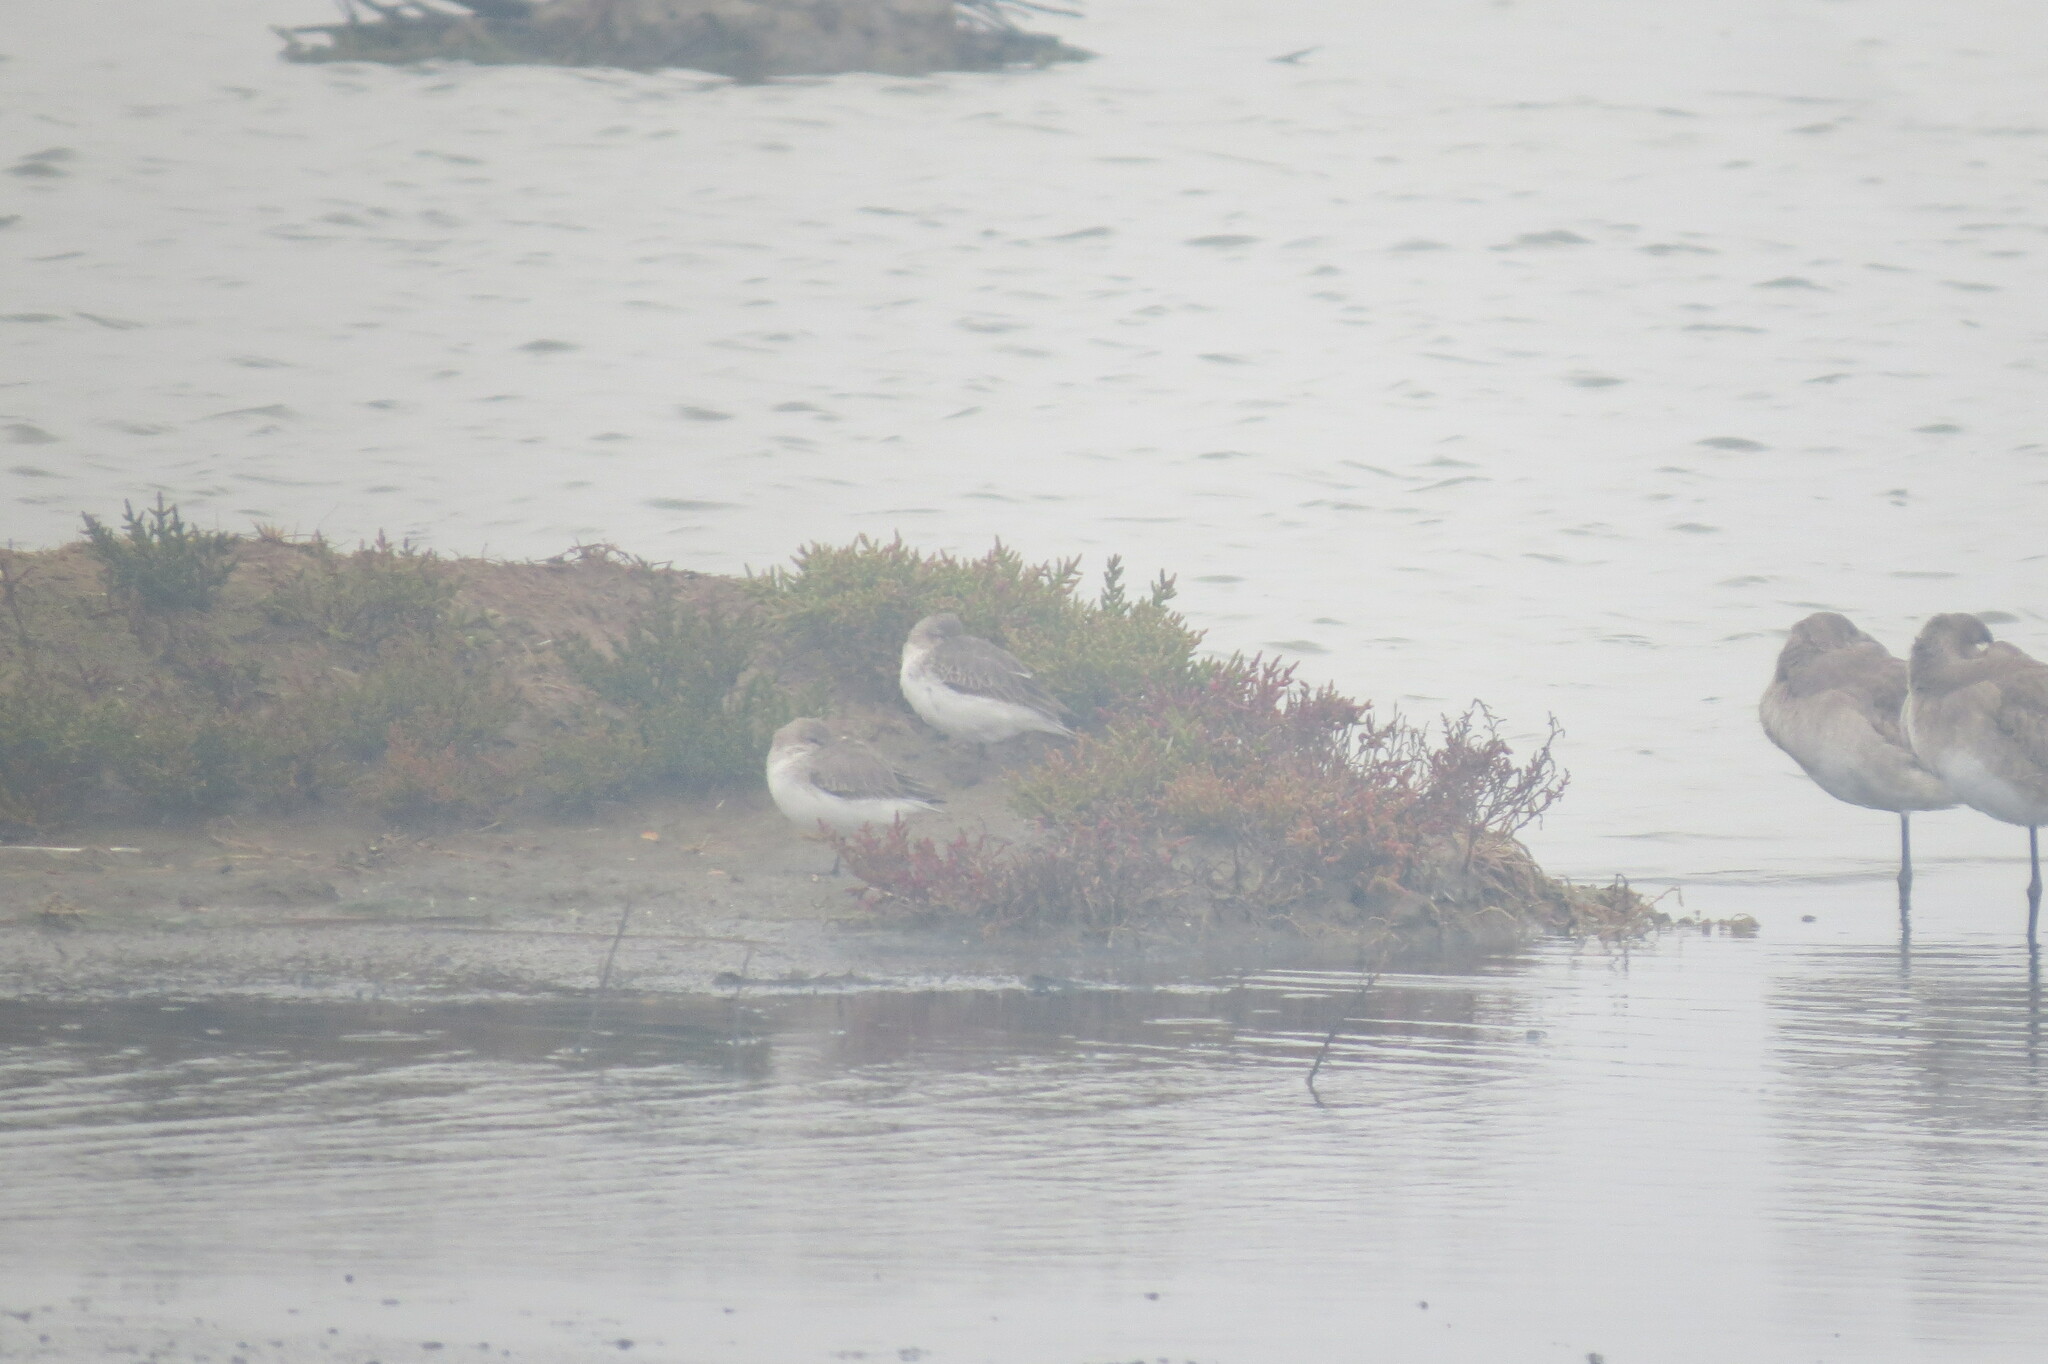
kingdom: Animalia
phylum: Chordata
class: Aves
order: Charadriiformes
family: Scolopacidae
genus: Calidris
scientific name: Calidris alpina
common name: Dunlin
